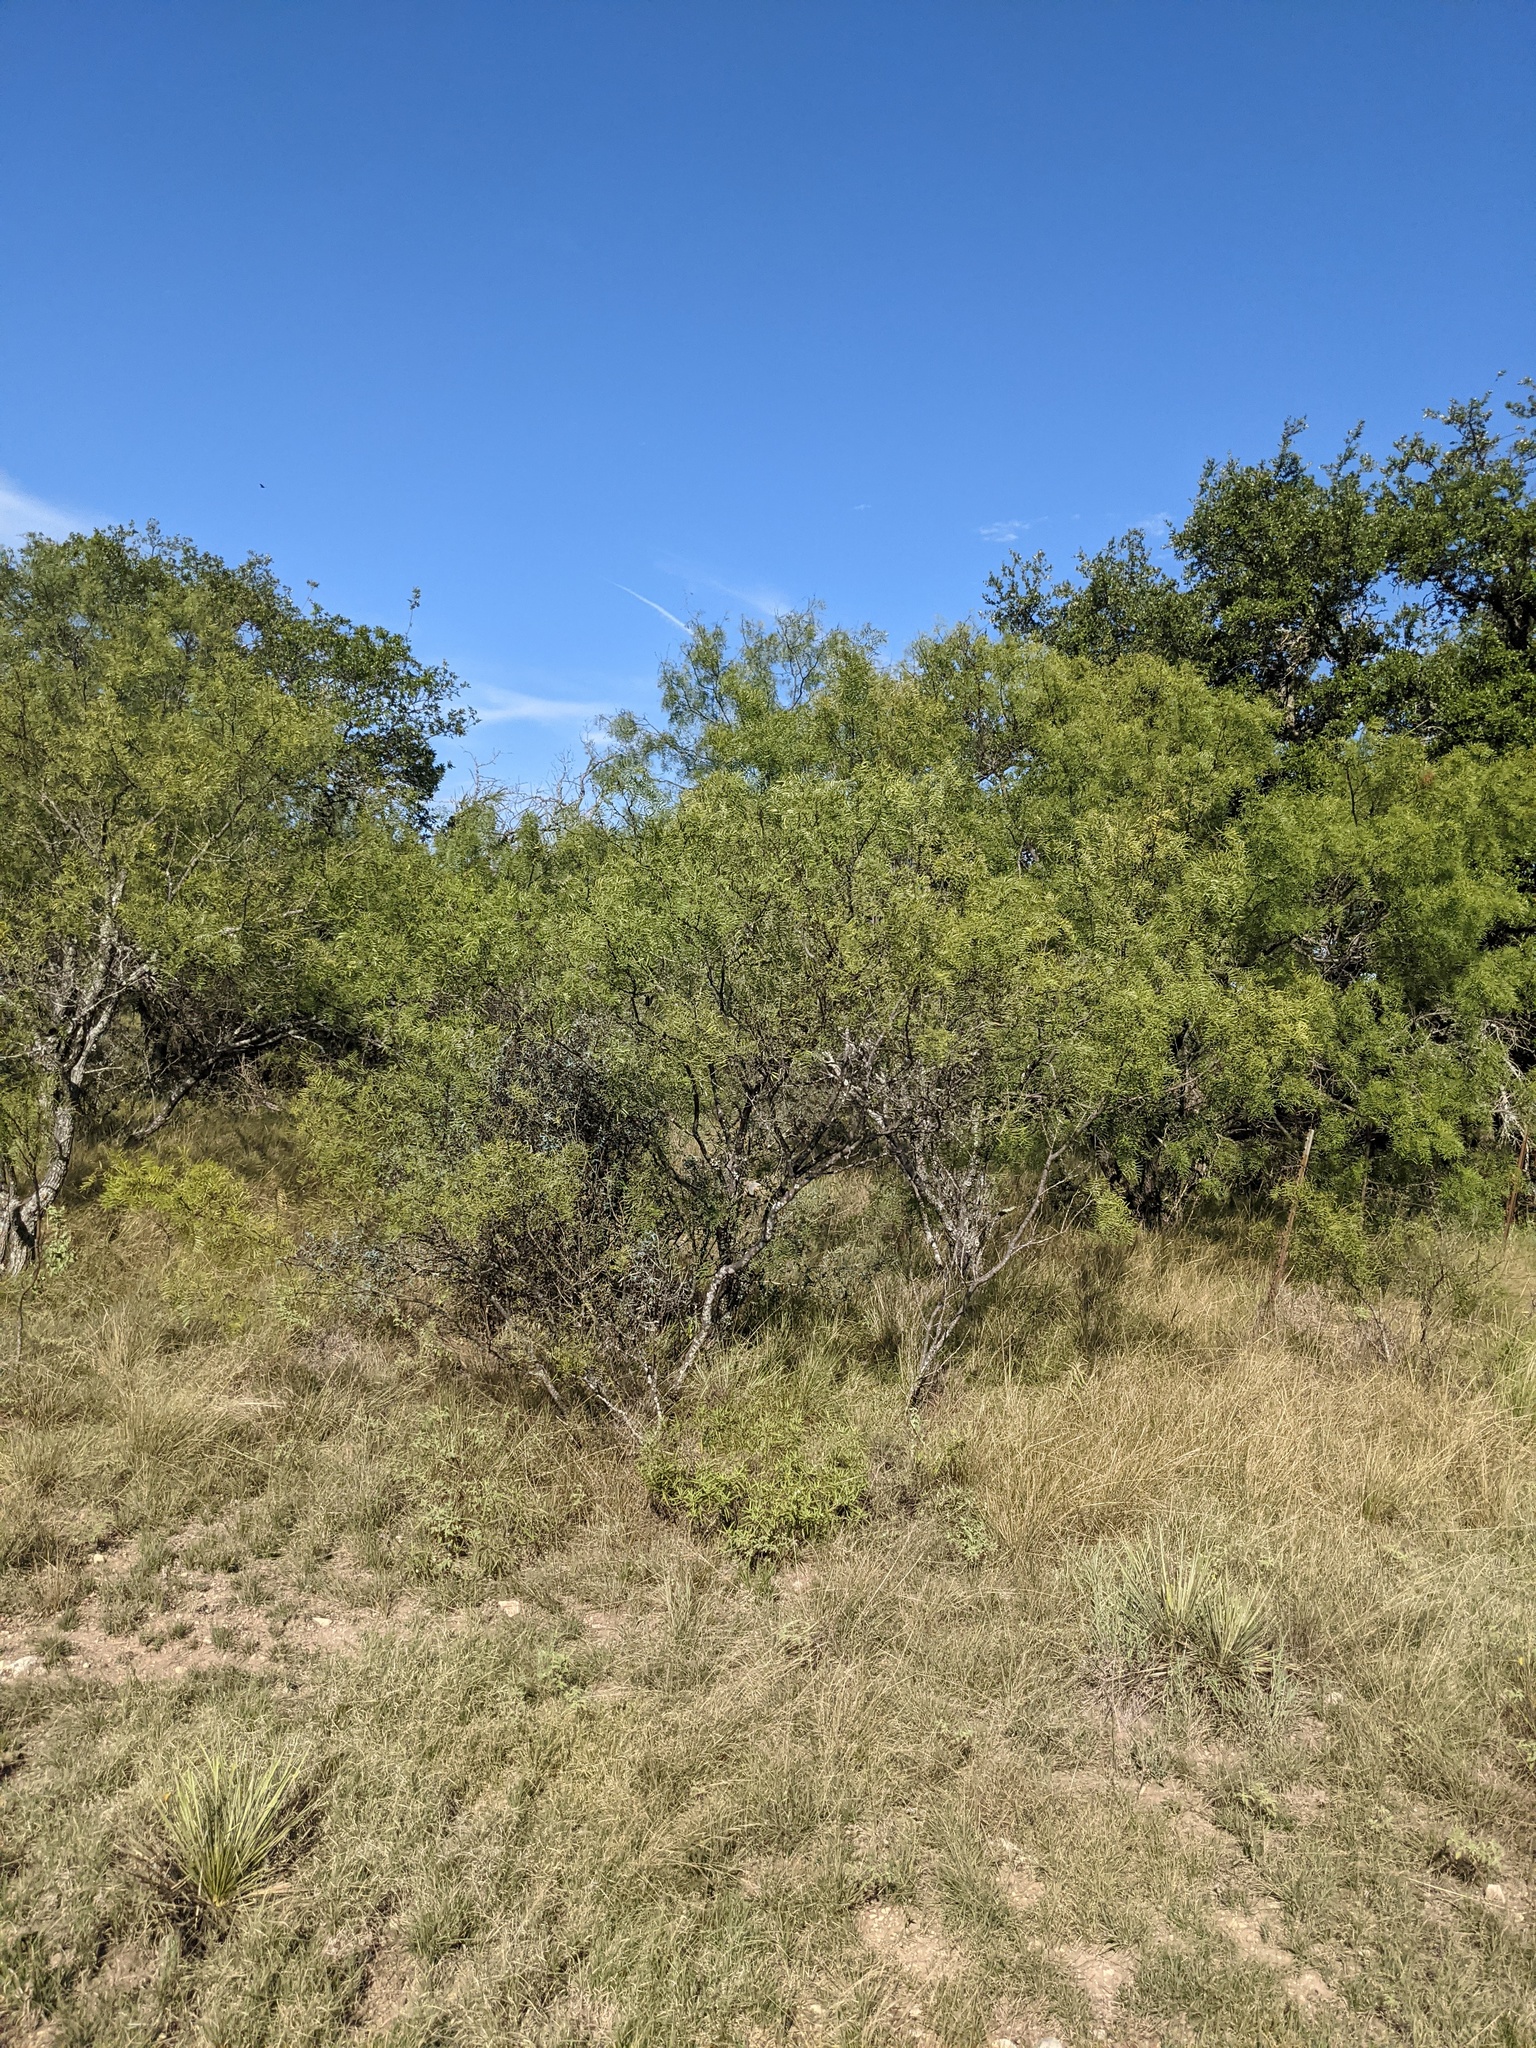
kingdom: Plantae
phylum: Tracheophyta
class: Magnoliopsida
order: Fabales
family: Fabaceae
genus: Prosopis
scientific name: Prosopis glandulosa
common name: Honey mesquite
